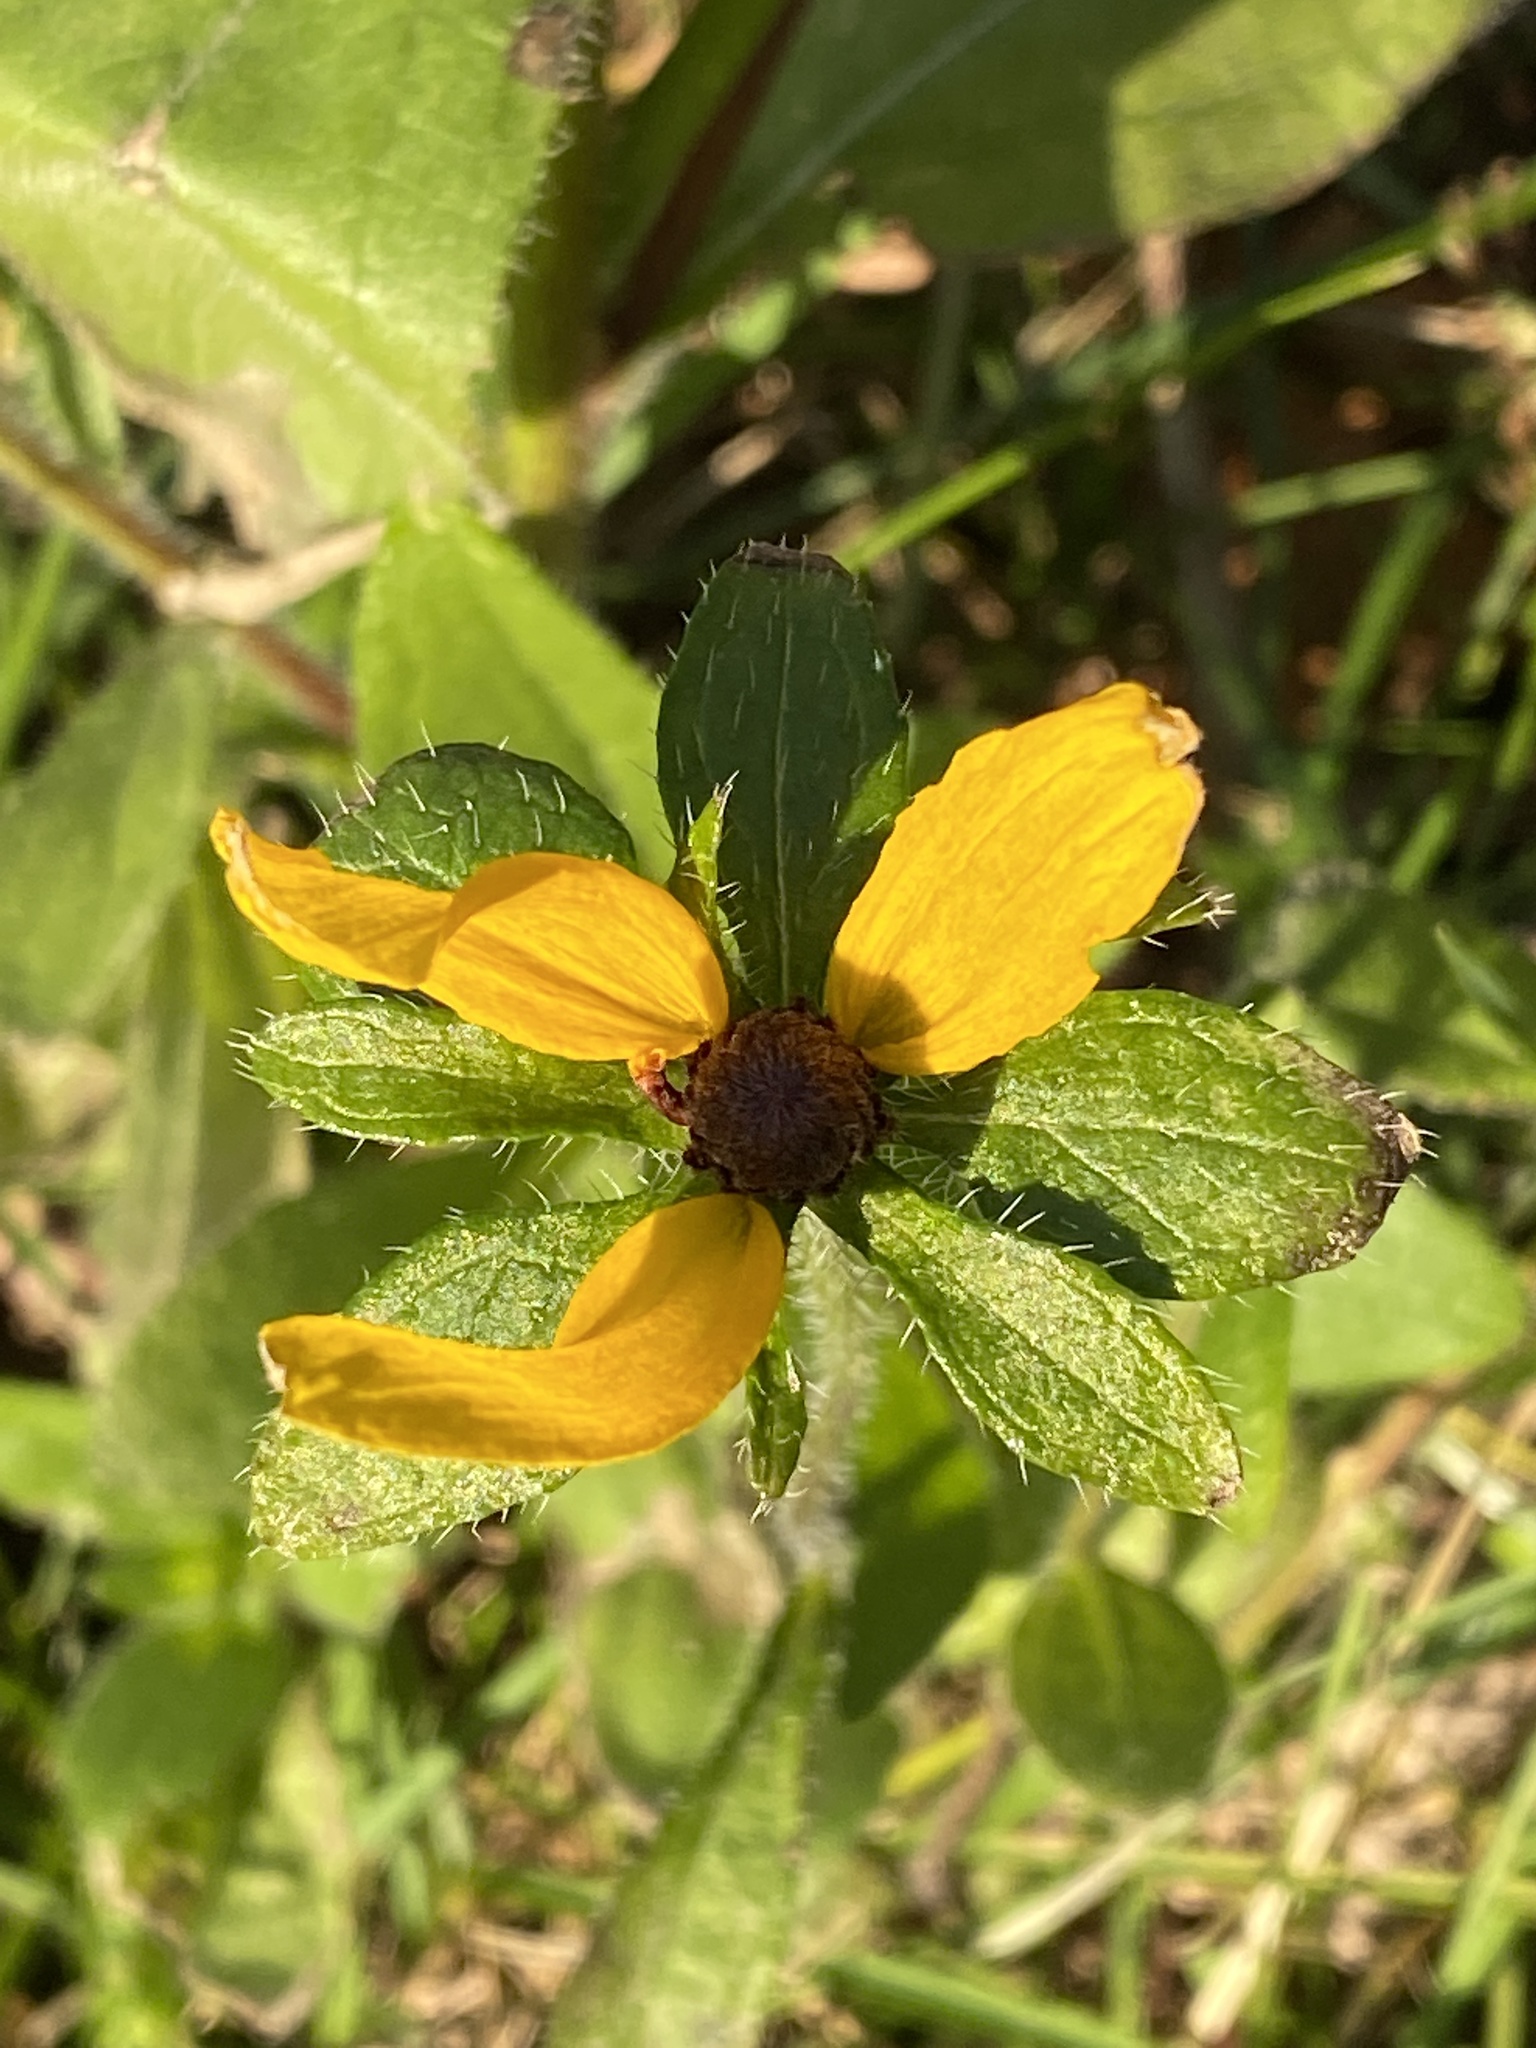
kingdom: Plantae
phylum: Tracheophyta
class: Magnoliopsida
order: Asterales
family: Asteraceae
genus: Rudbeckia
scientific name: Rudbeckia hirta
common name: Black-eyed-susan
